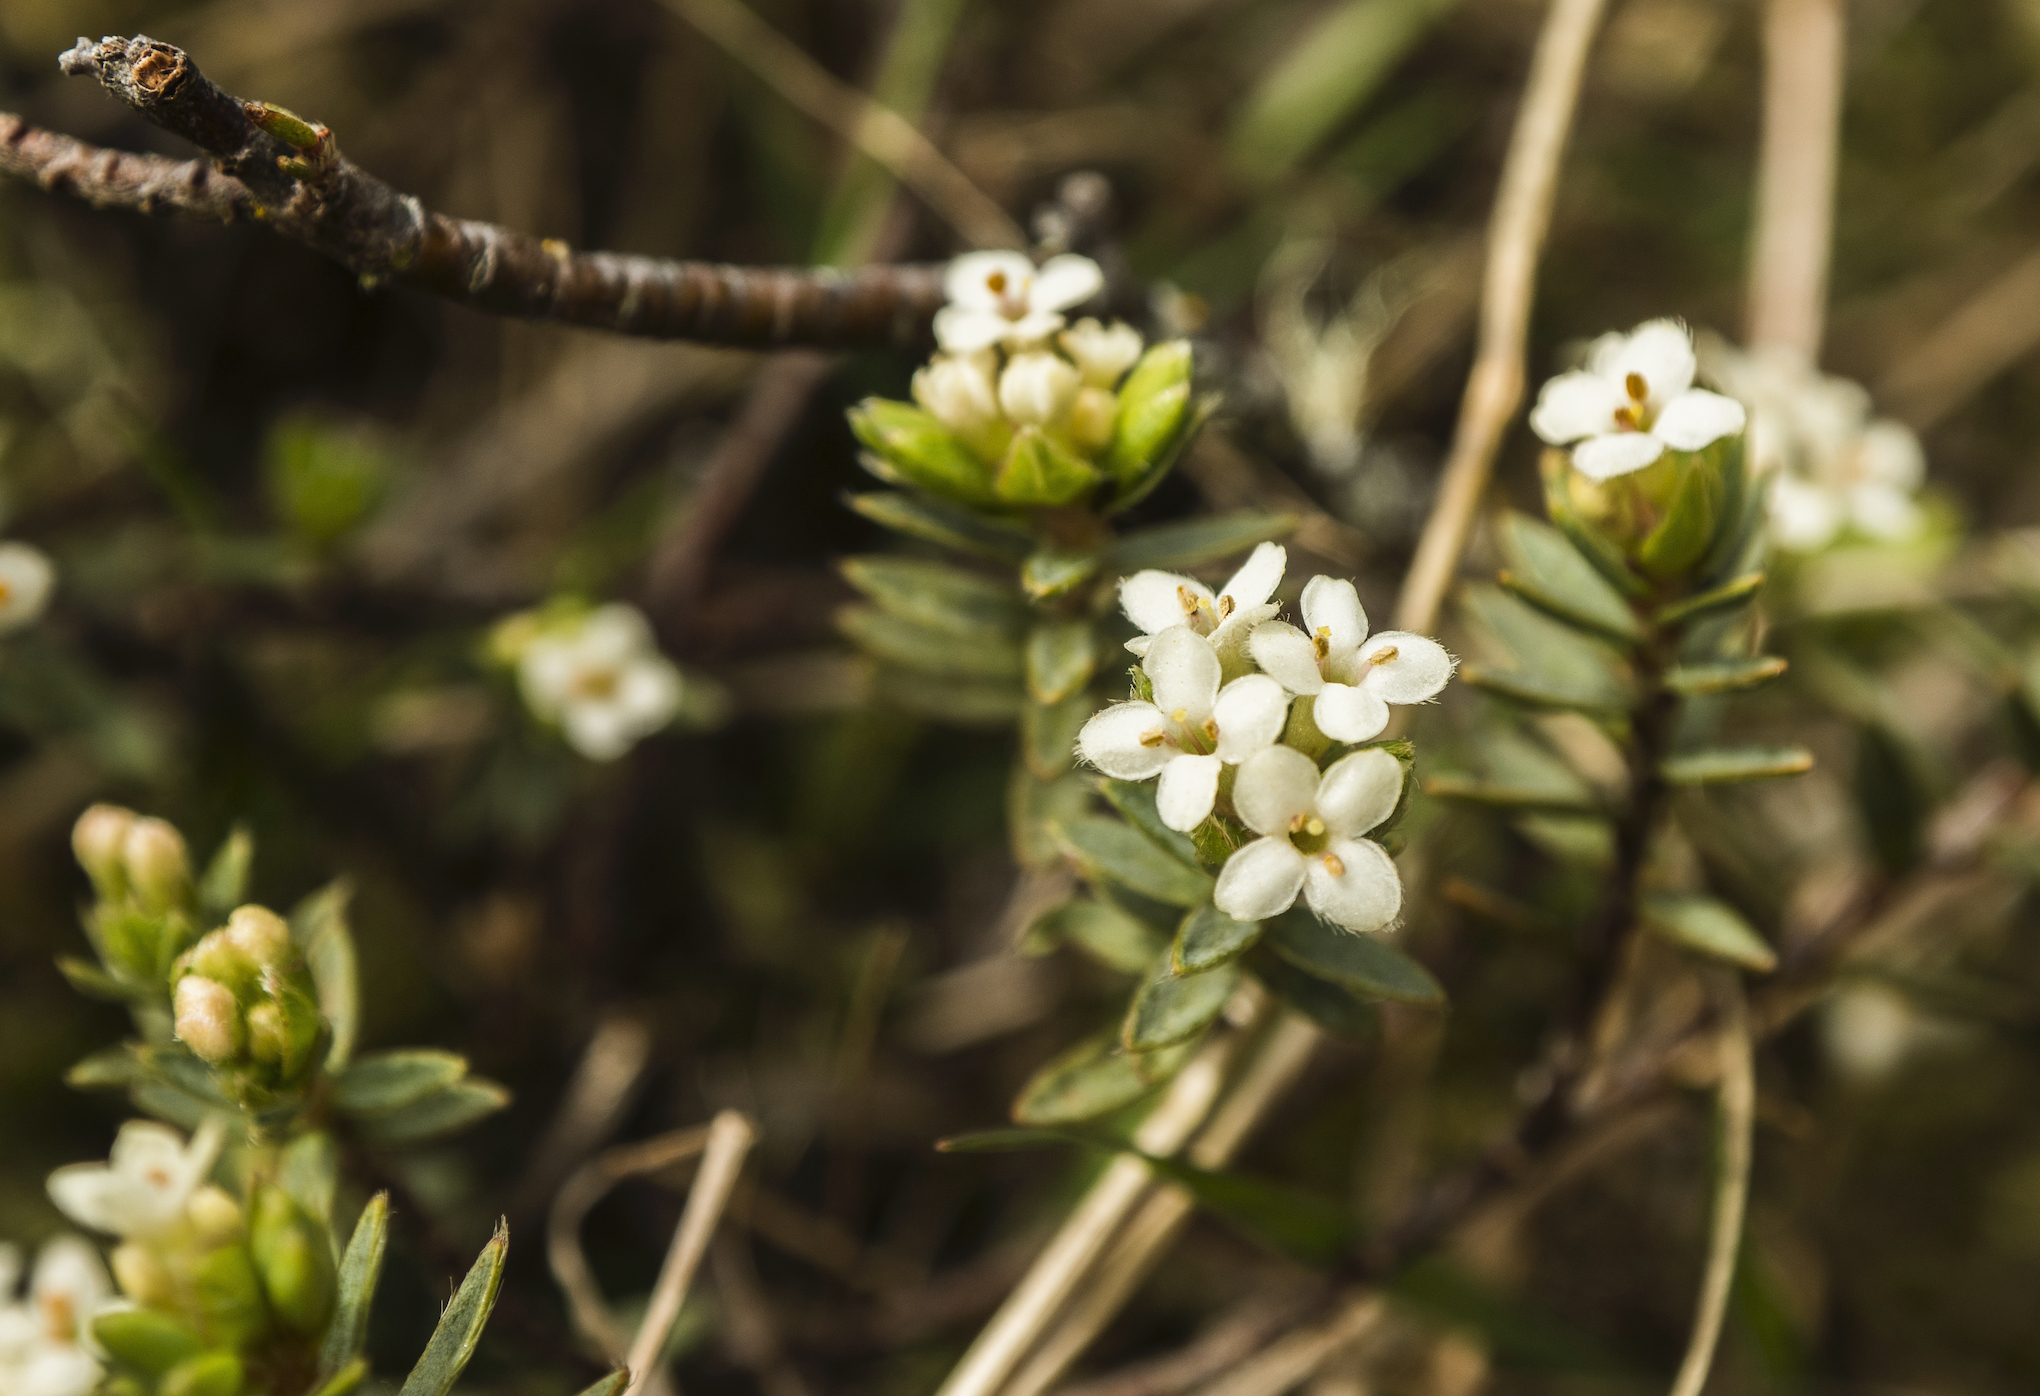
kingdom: Plantae
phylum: Tracheophyta
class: Magnoliopsida
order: Malvales
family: Thymelaeaceae
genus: Pimelea
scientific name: Pimelea oreophila
